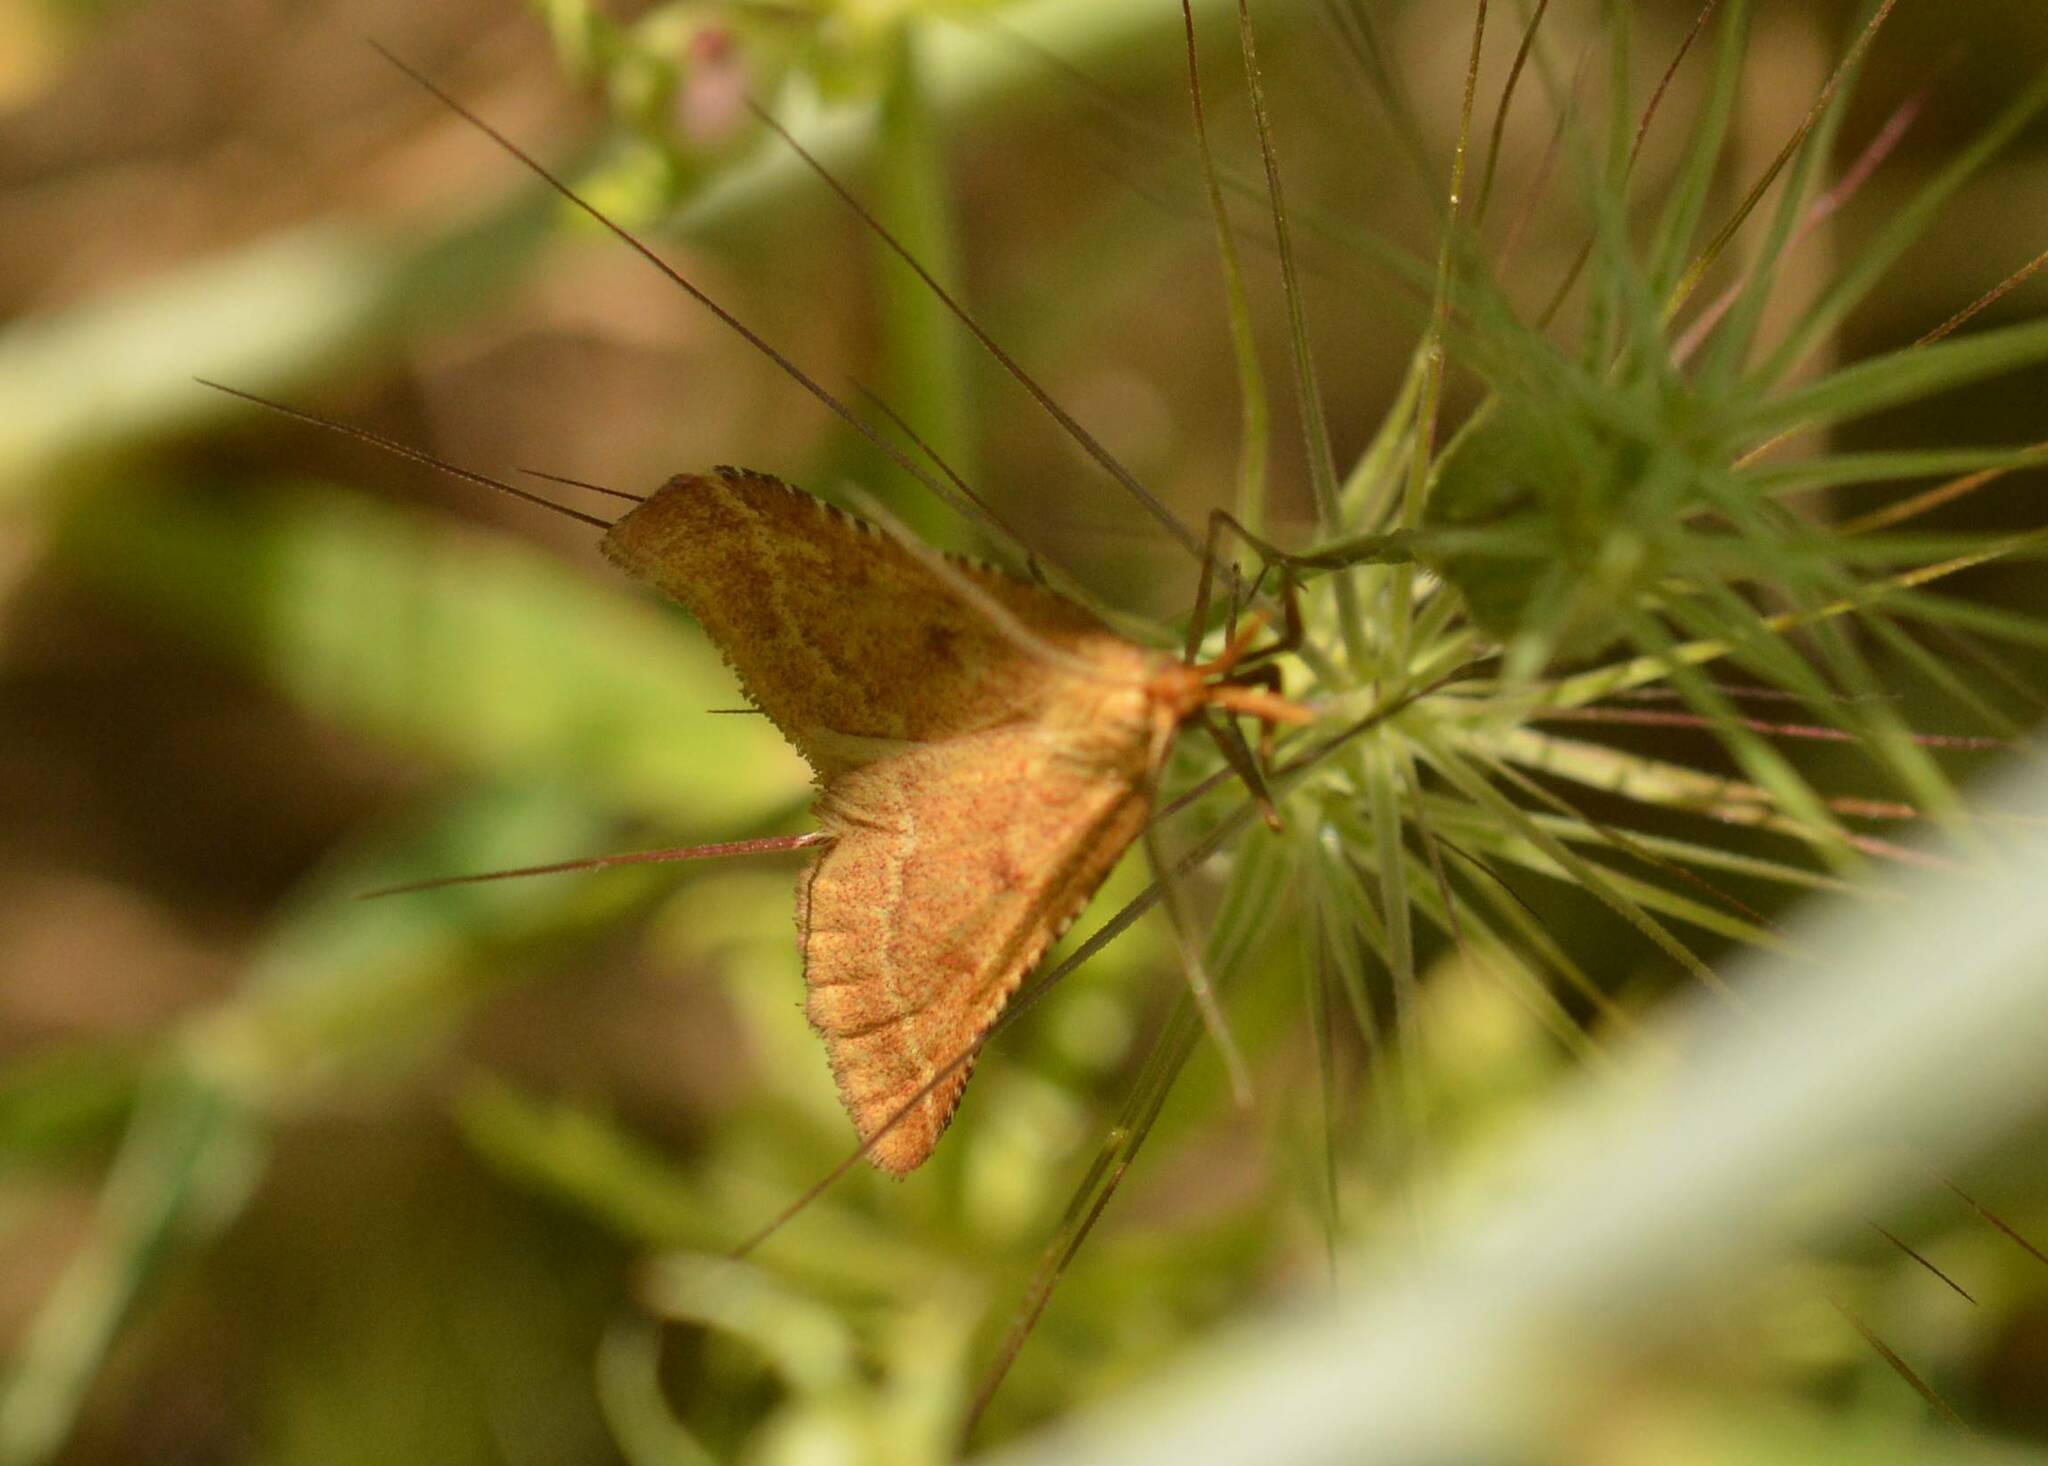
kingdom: Animalia
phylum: Arthropoda
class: Insecta
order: Lepidoptera
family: Pyralidae
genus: Synaphe
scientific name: Synaphe punctalis
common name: Long-legged tabby
